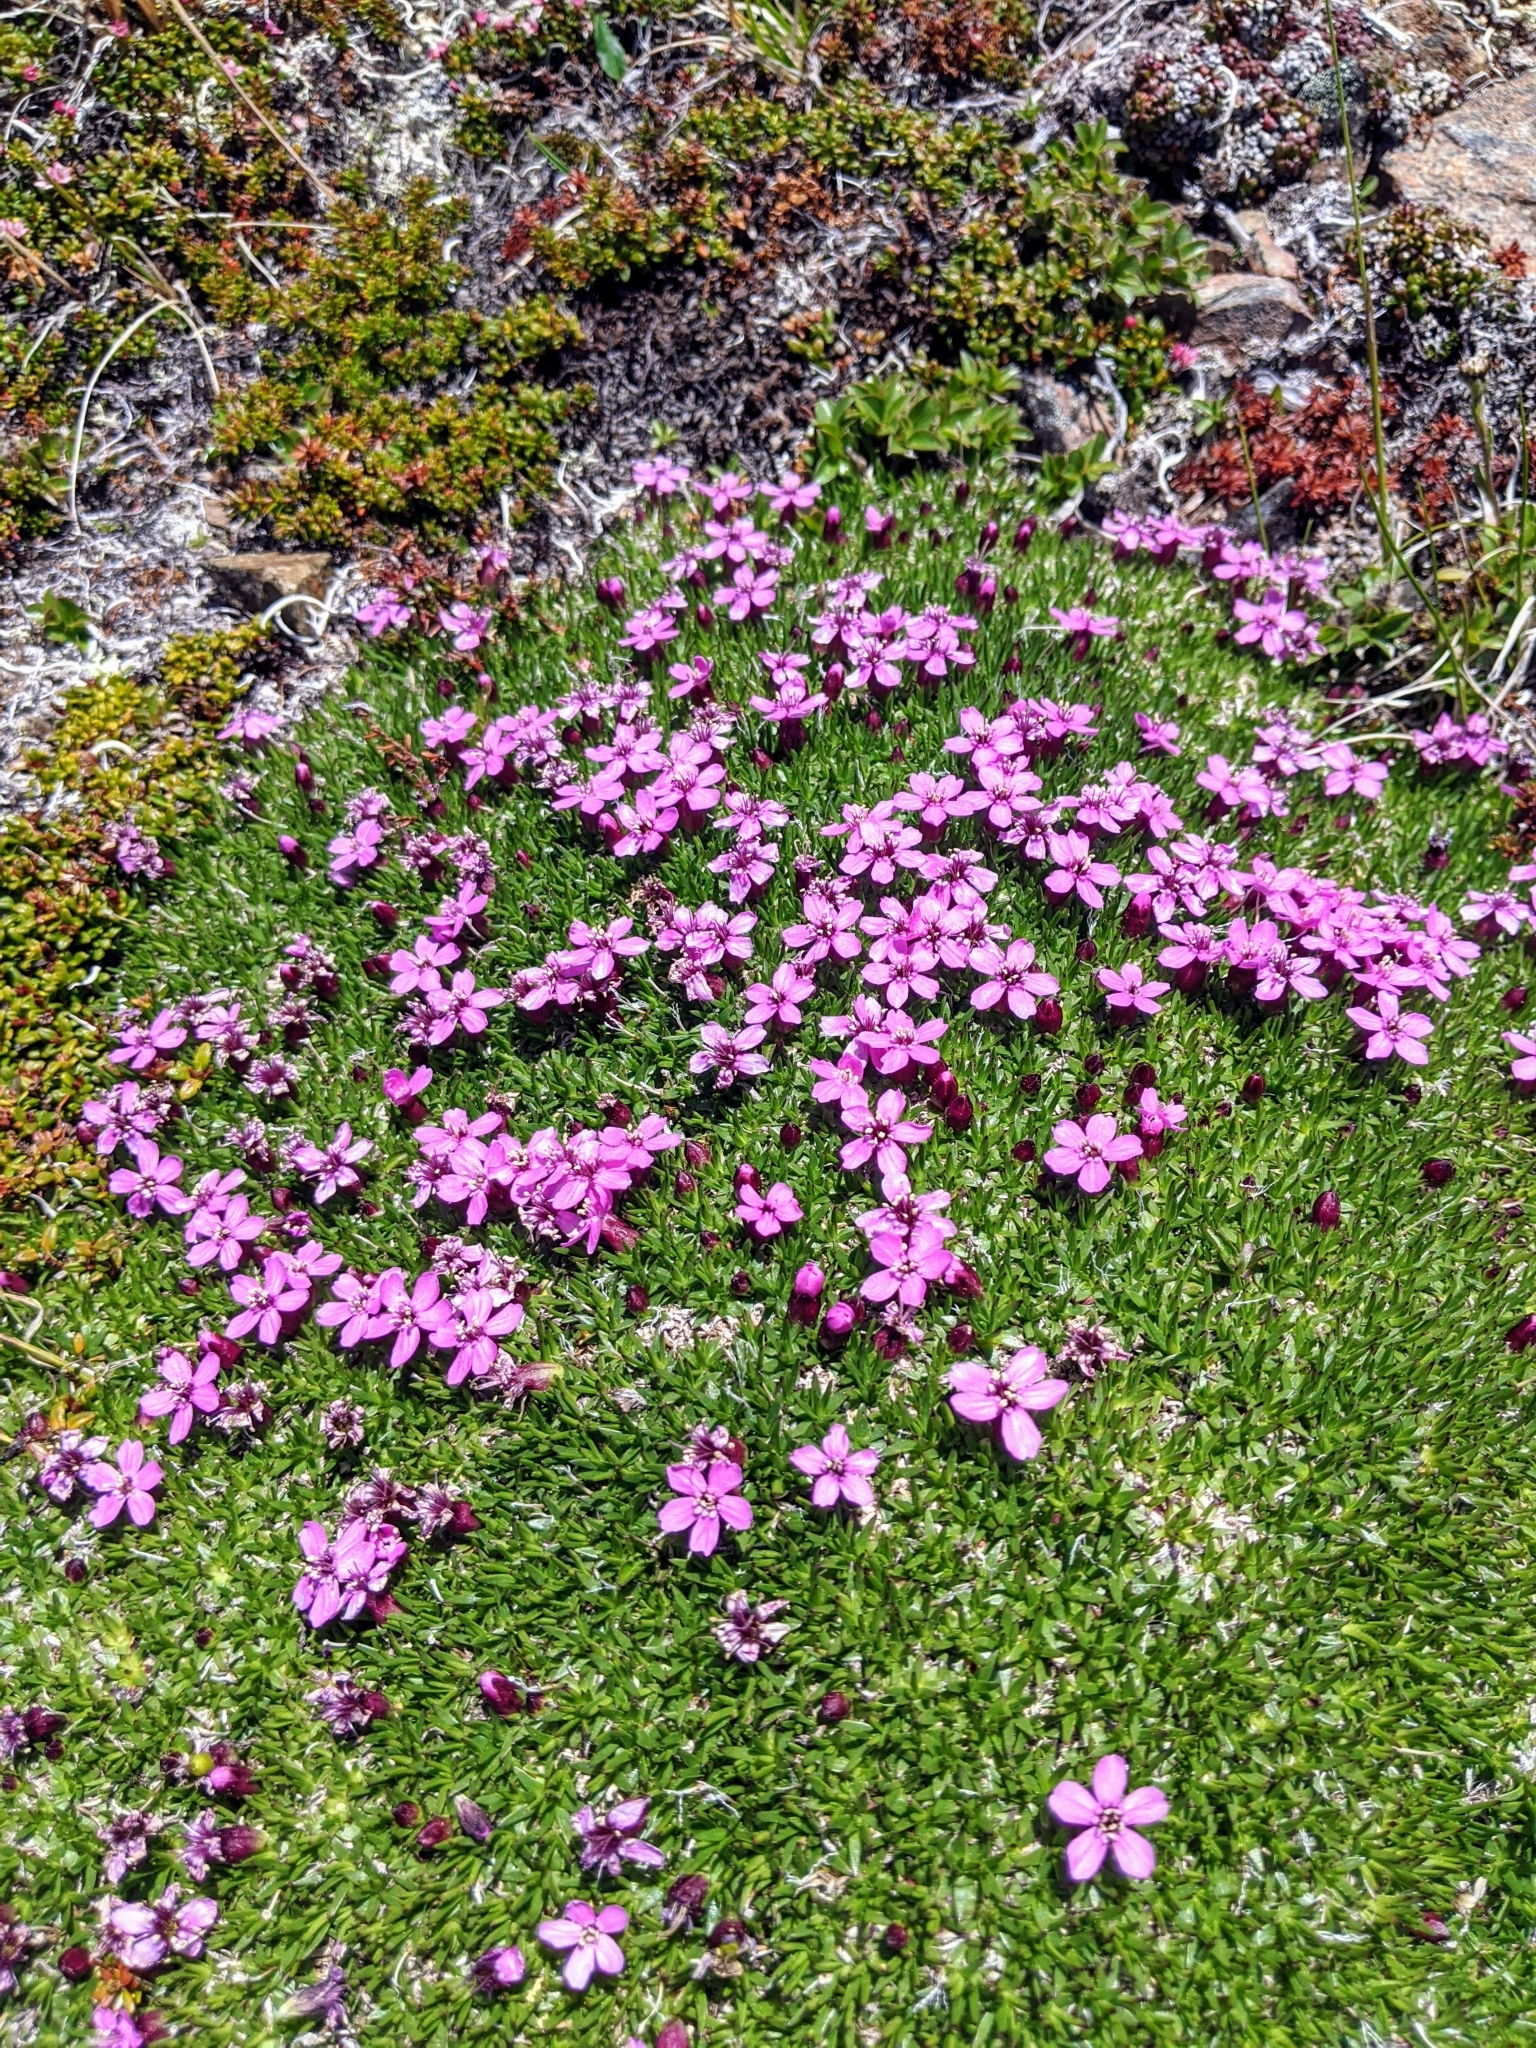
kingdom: Plantae
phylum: Tracheophyta
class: Magnoliopsida
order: Caryophyllales
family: Caryophyllaceae
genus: Silene
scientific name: Silene acaulis
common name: Moss campion
